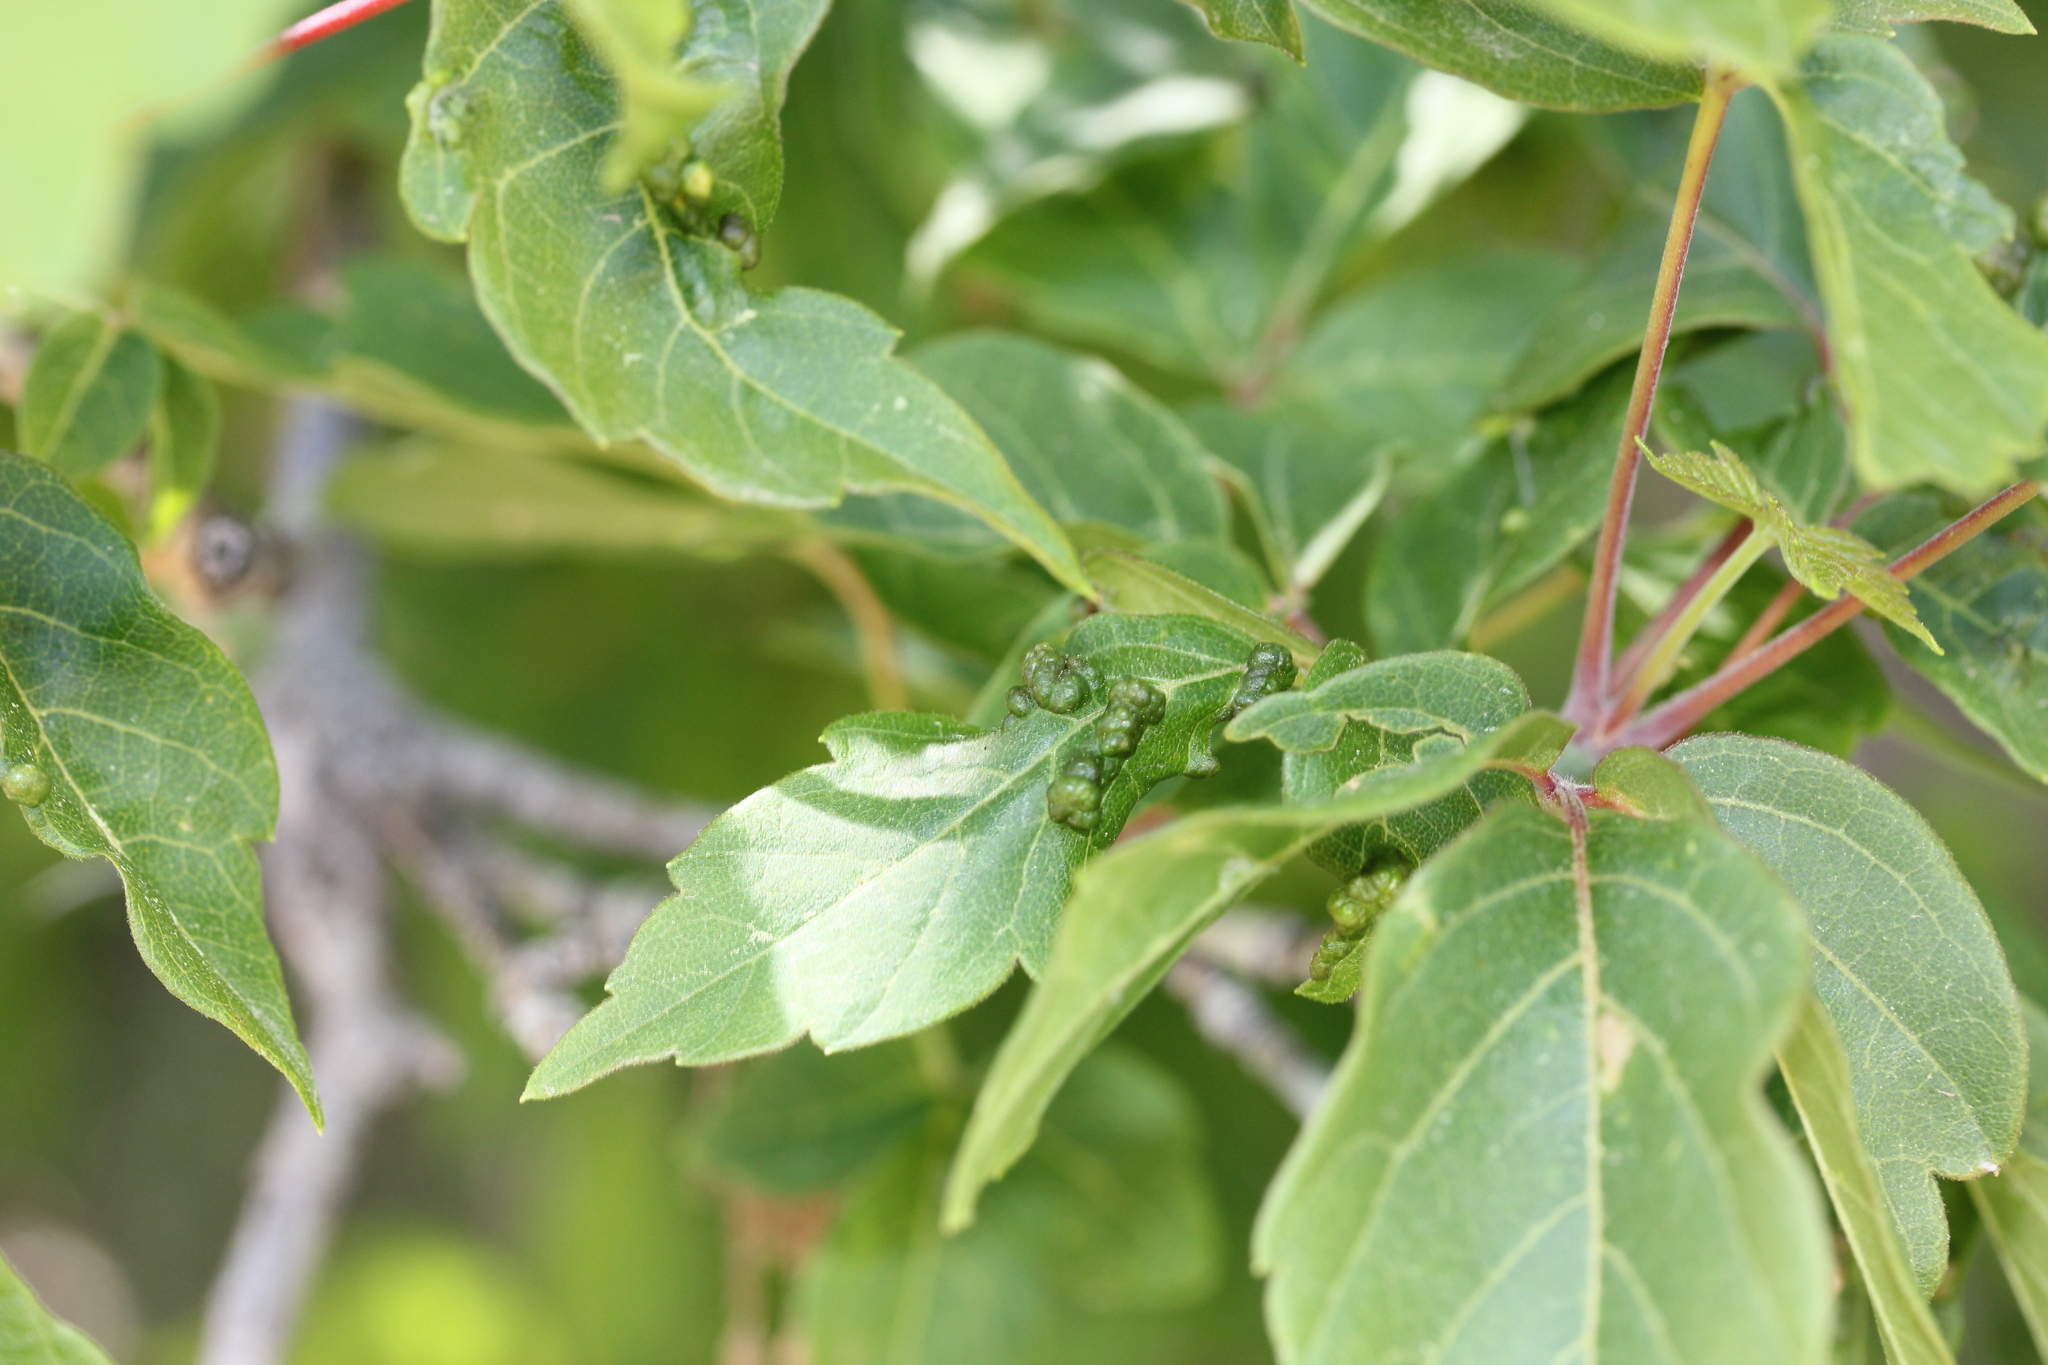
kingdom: Animalia
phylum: Arthropoda
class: Arachnida
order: Trombidiformes
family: Eriophyidae
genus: Aceria
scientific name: Aceria
